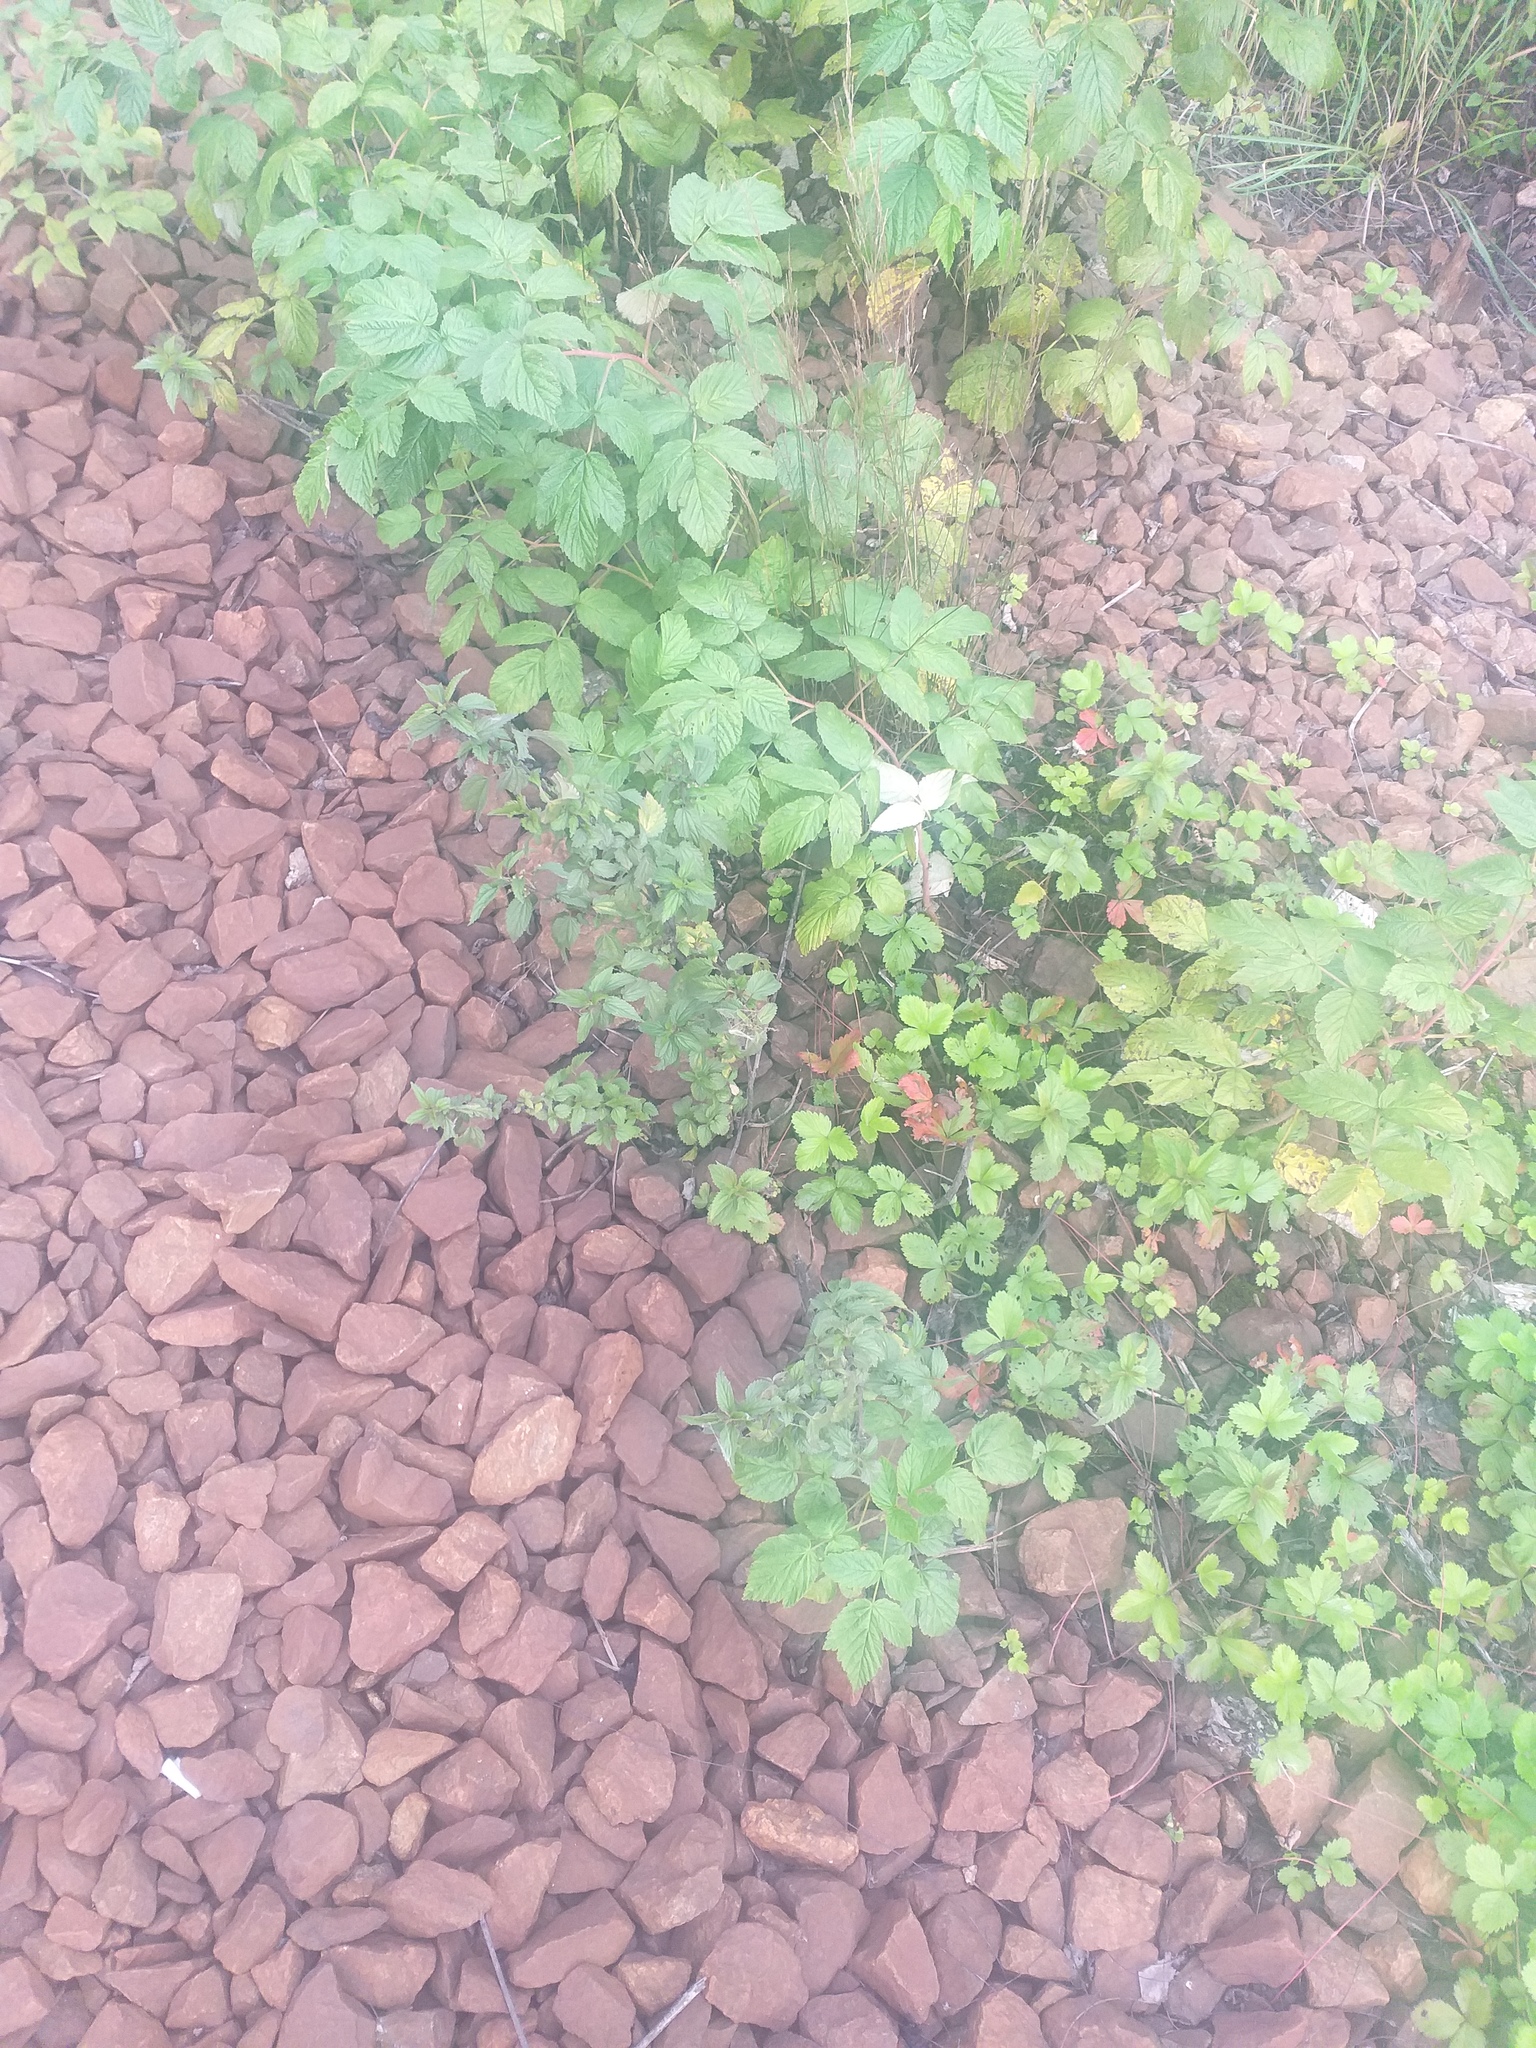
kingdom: Plantae
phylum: Tracheophyta
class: Magnoliopsida
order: Rosales
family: Urticaceae
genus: Urtica
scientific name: Urtica dioica
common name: Common nettle
